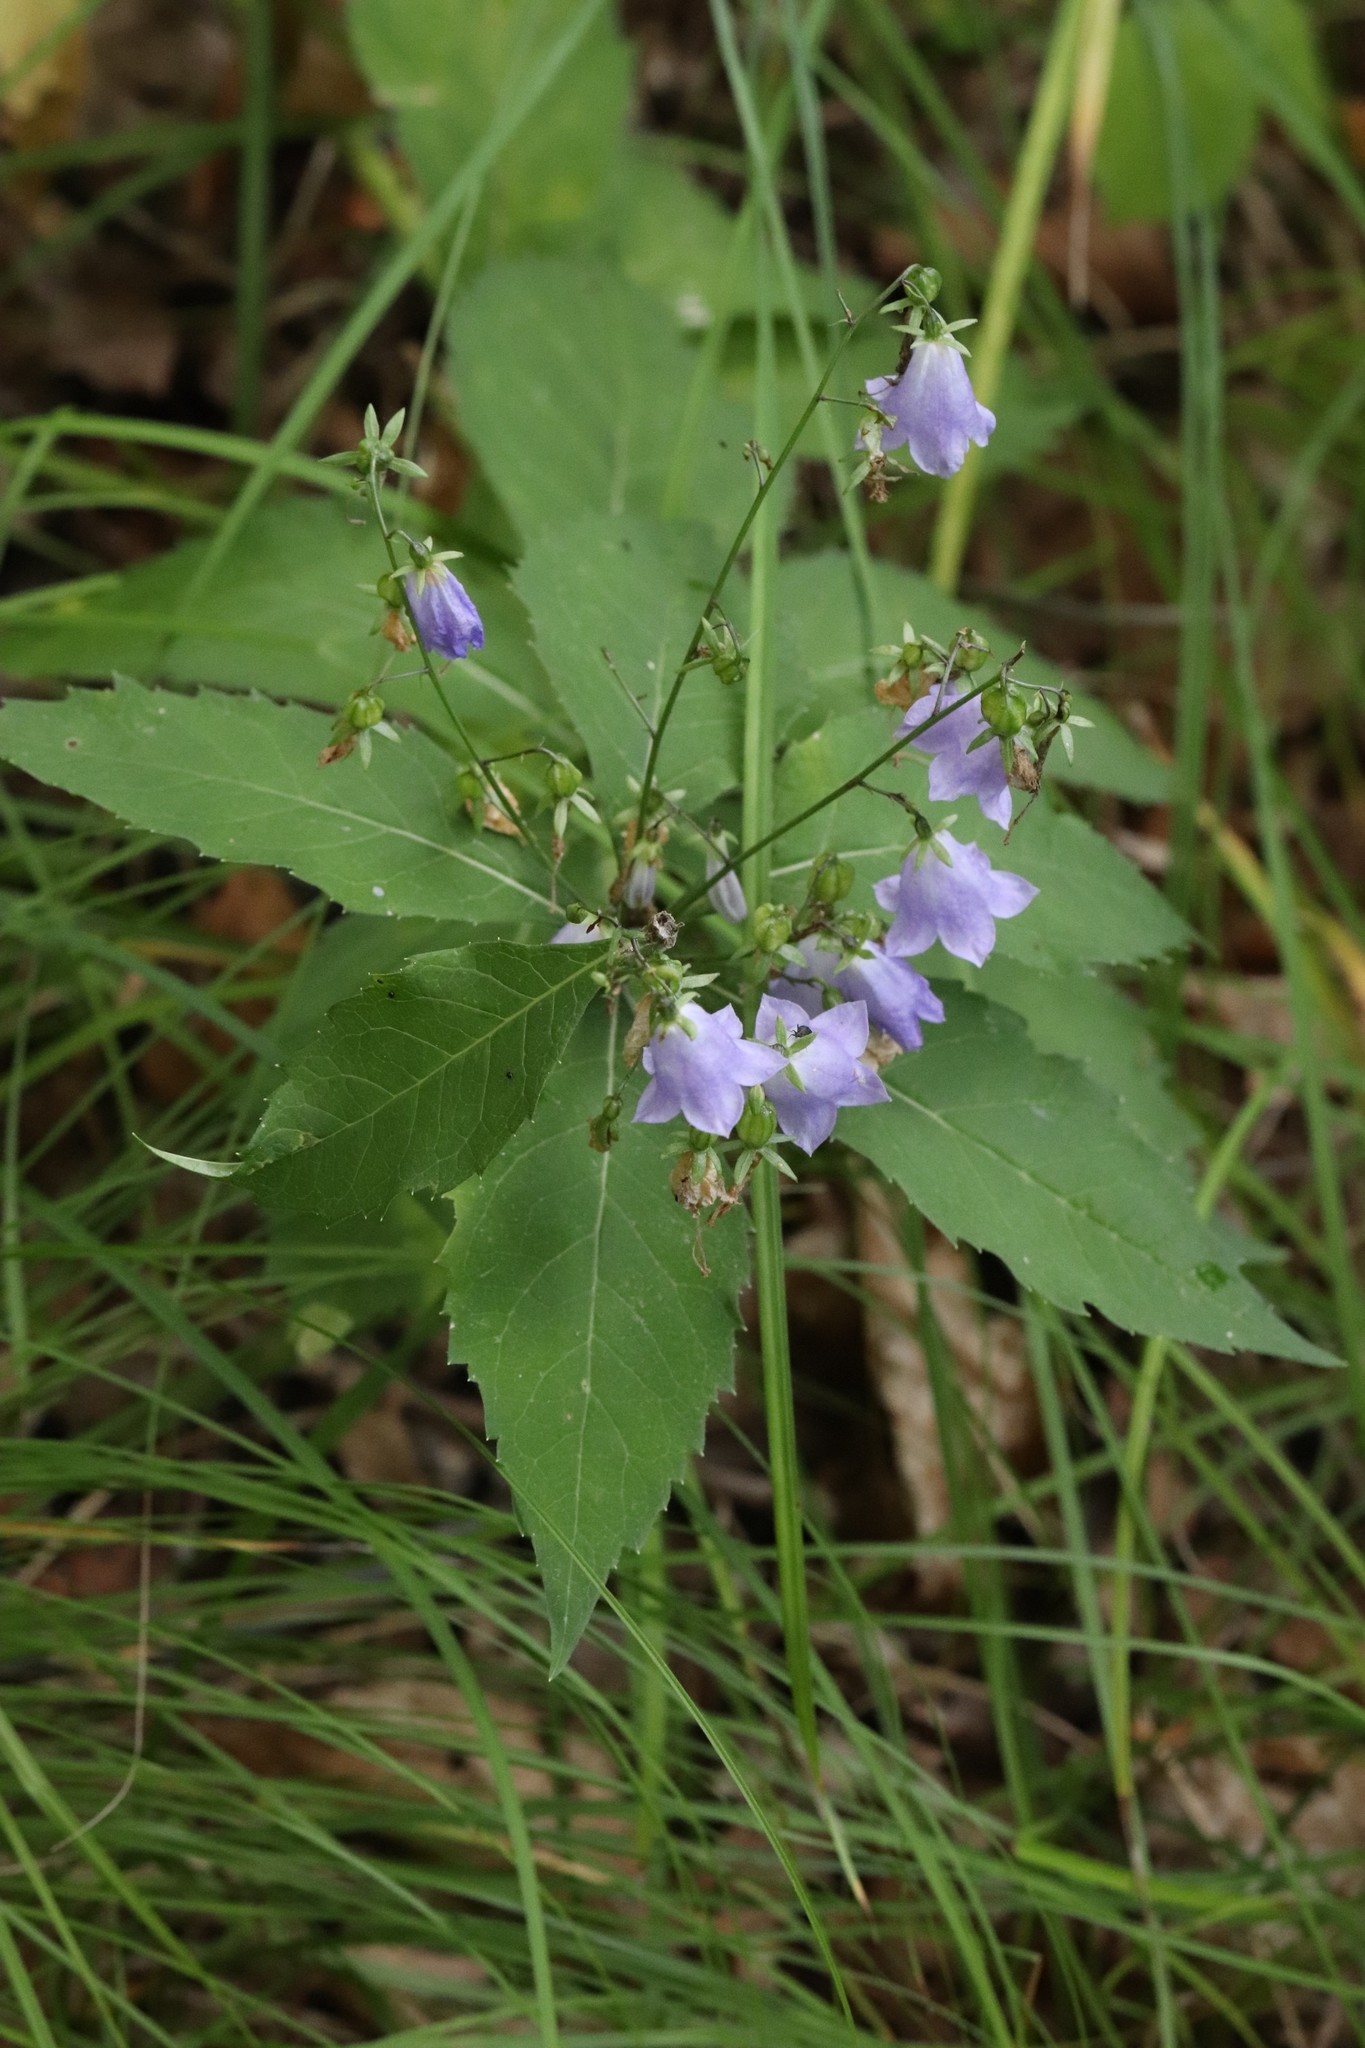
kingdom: Plantae
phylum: Tracheophyta
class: Magnoliopsida
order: Asterales
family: Campanulaceae
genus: Adenophora
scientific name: Adenophora pereskiifolia
